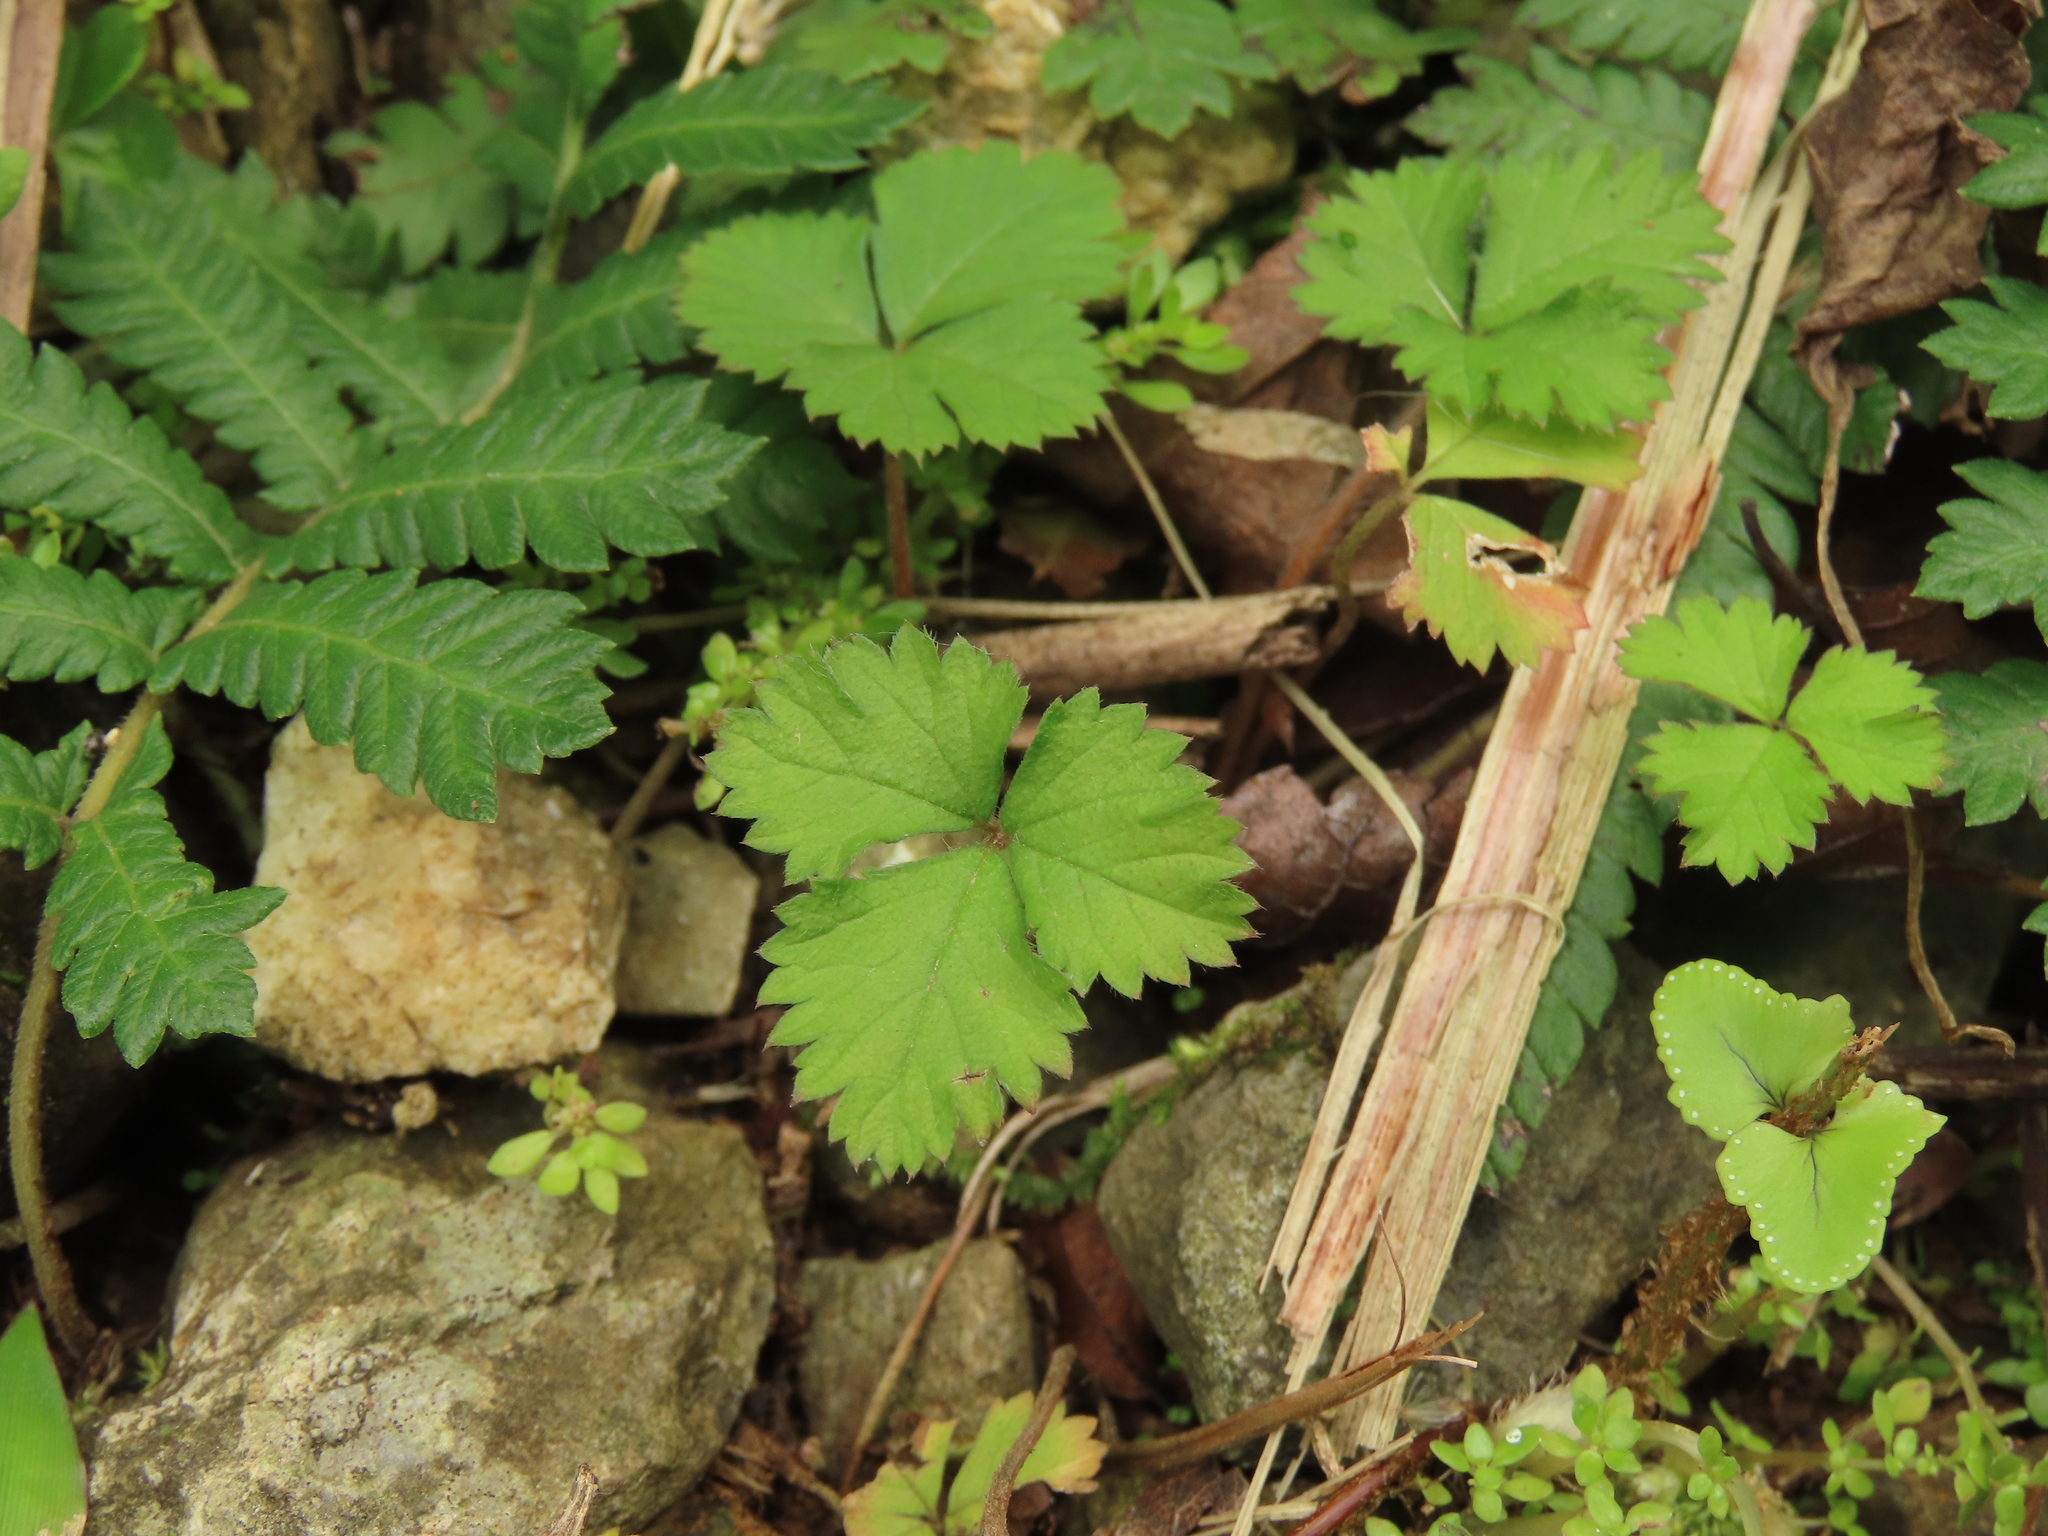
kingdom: Plantae
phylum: Tracheophyta
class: Magnoliopsida
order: Rosales
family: Rosaceae
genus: Potentilla
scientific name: Potentilla wallichiana
